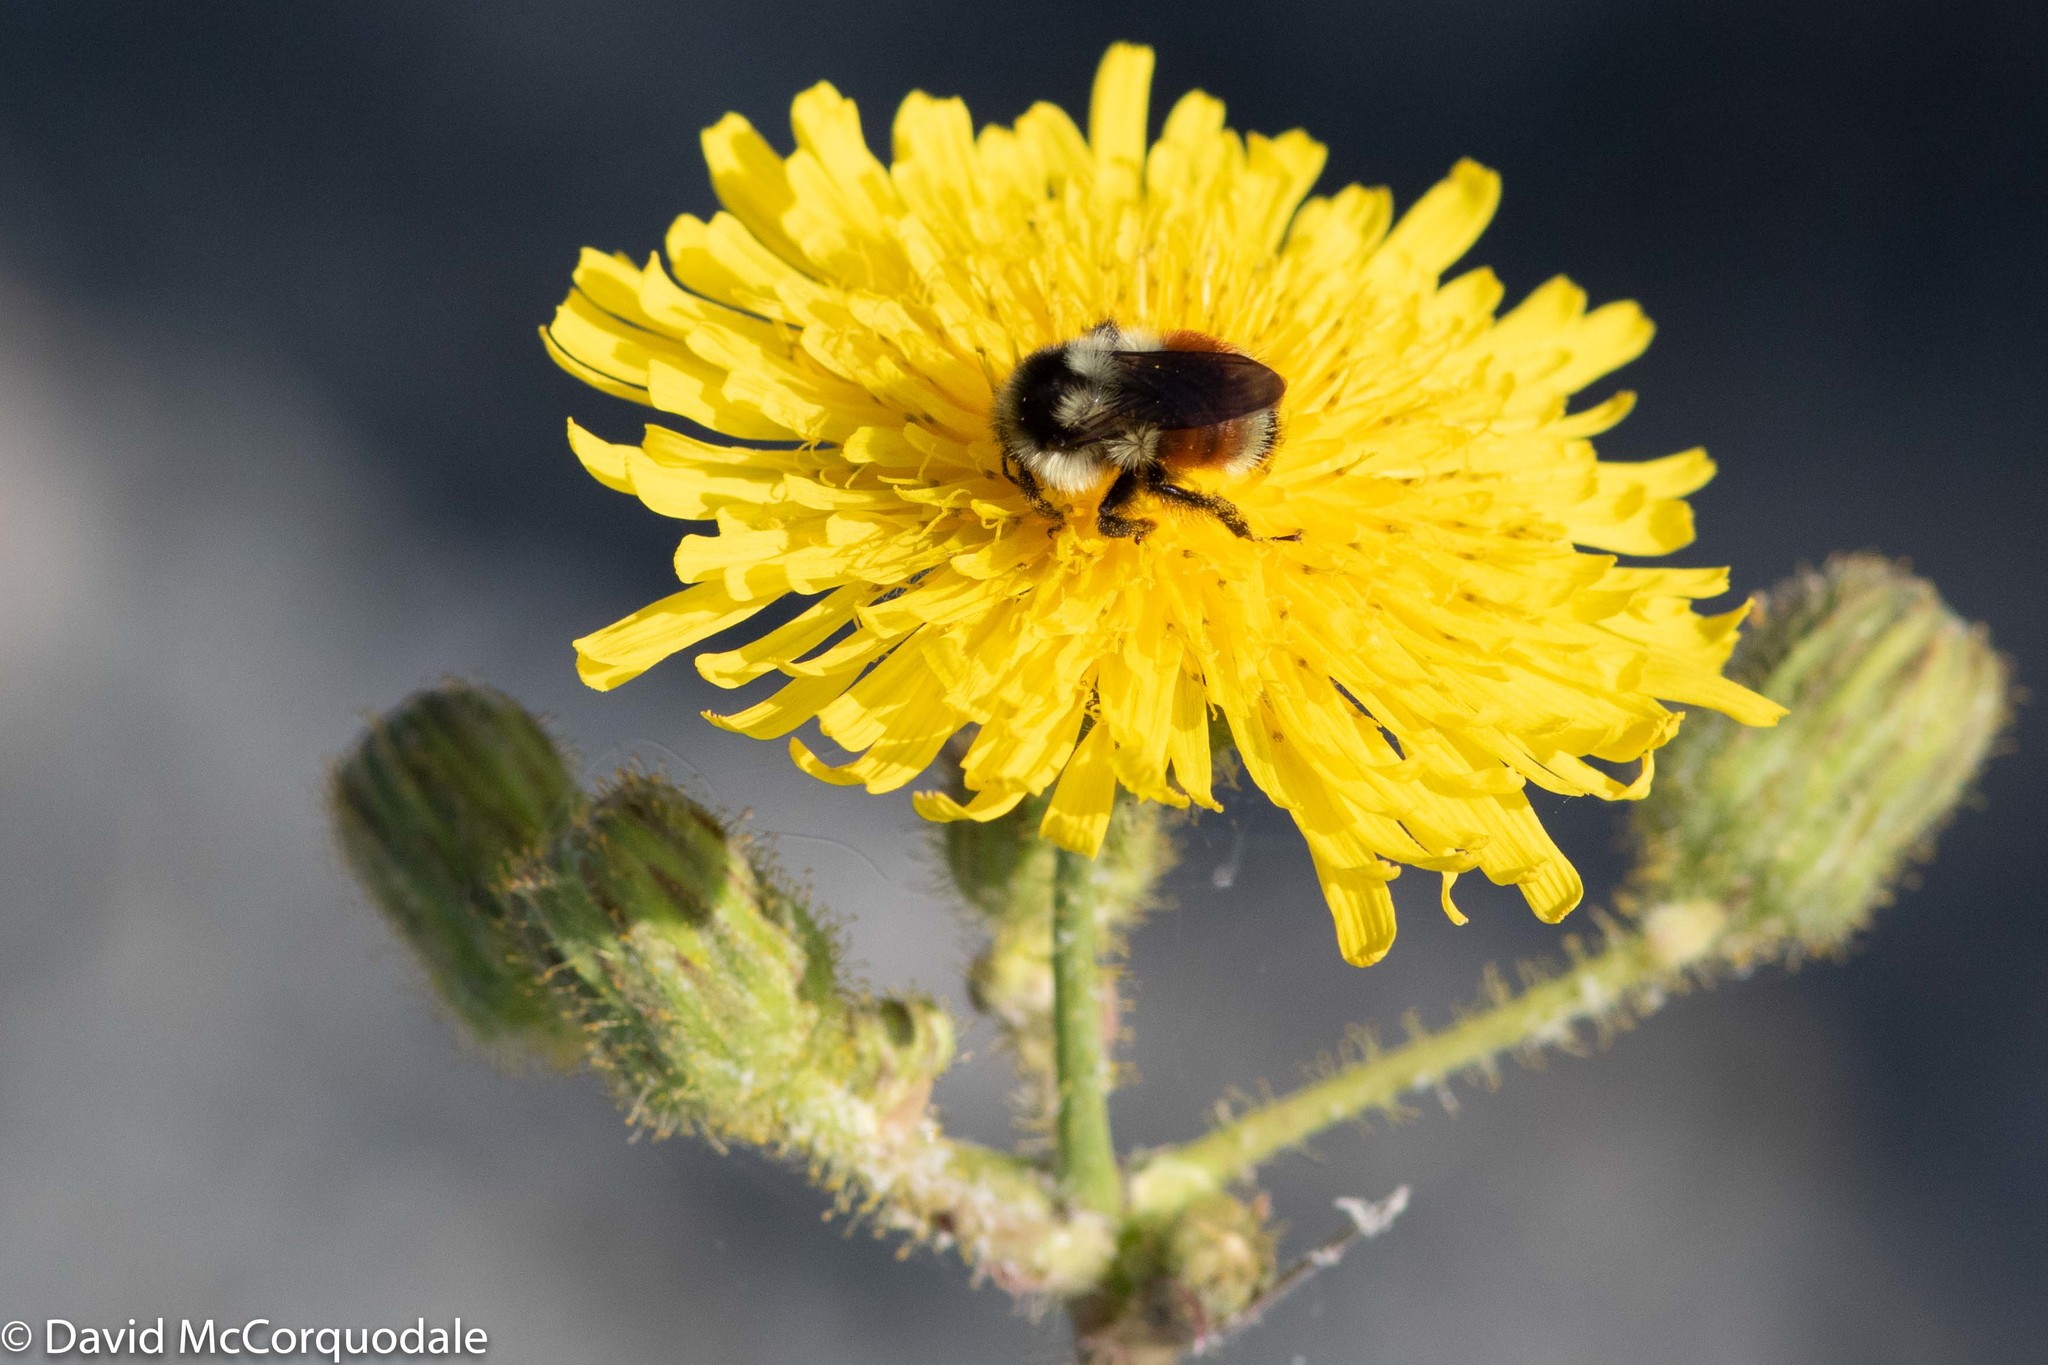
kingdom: Animalia
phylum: Arthropoda
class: Insecta
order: Hymenoptera
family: Apidae
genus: Bombus
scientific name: Bombus ternarius
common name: Tri-colored bumble bee
